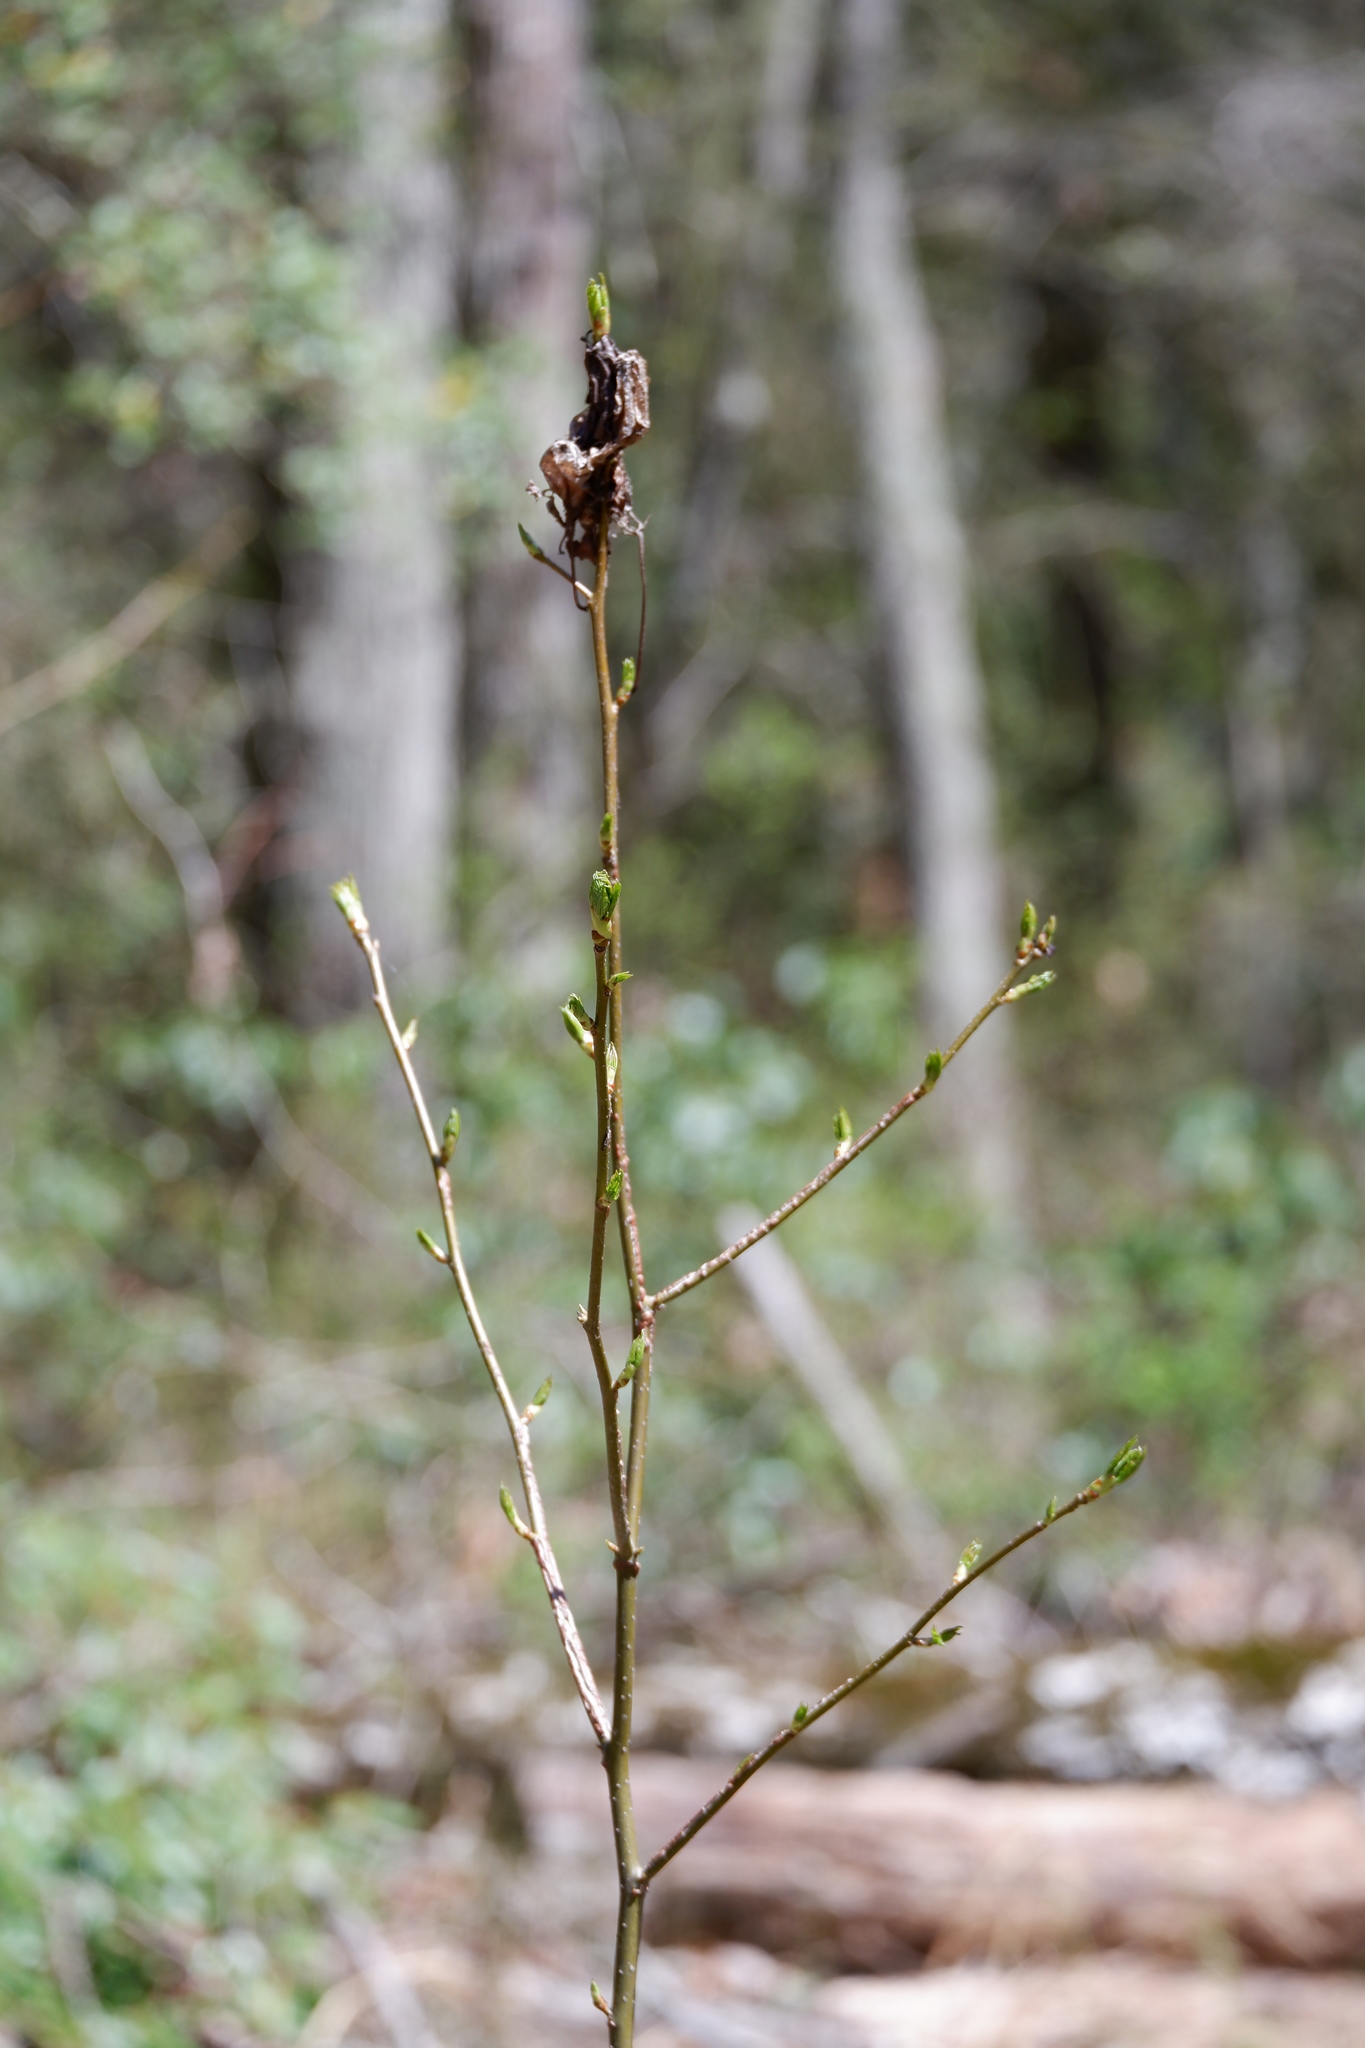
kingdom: Plantae
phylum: Tracheophyta
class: Magnoliopsida
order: Saxifragales
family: Altingiaceae
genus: Liquidambar
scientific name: Liquidambar styraciflua
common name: Sweet gum
